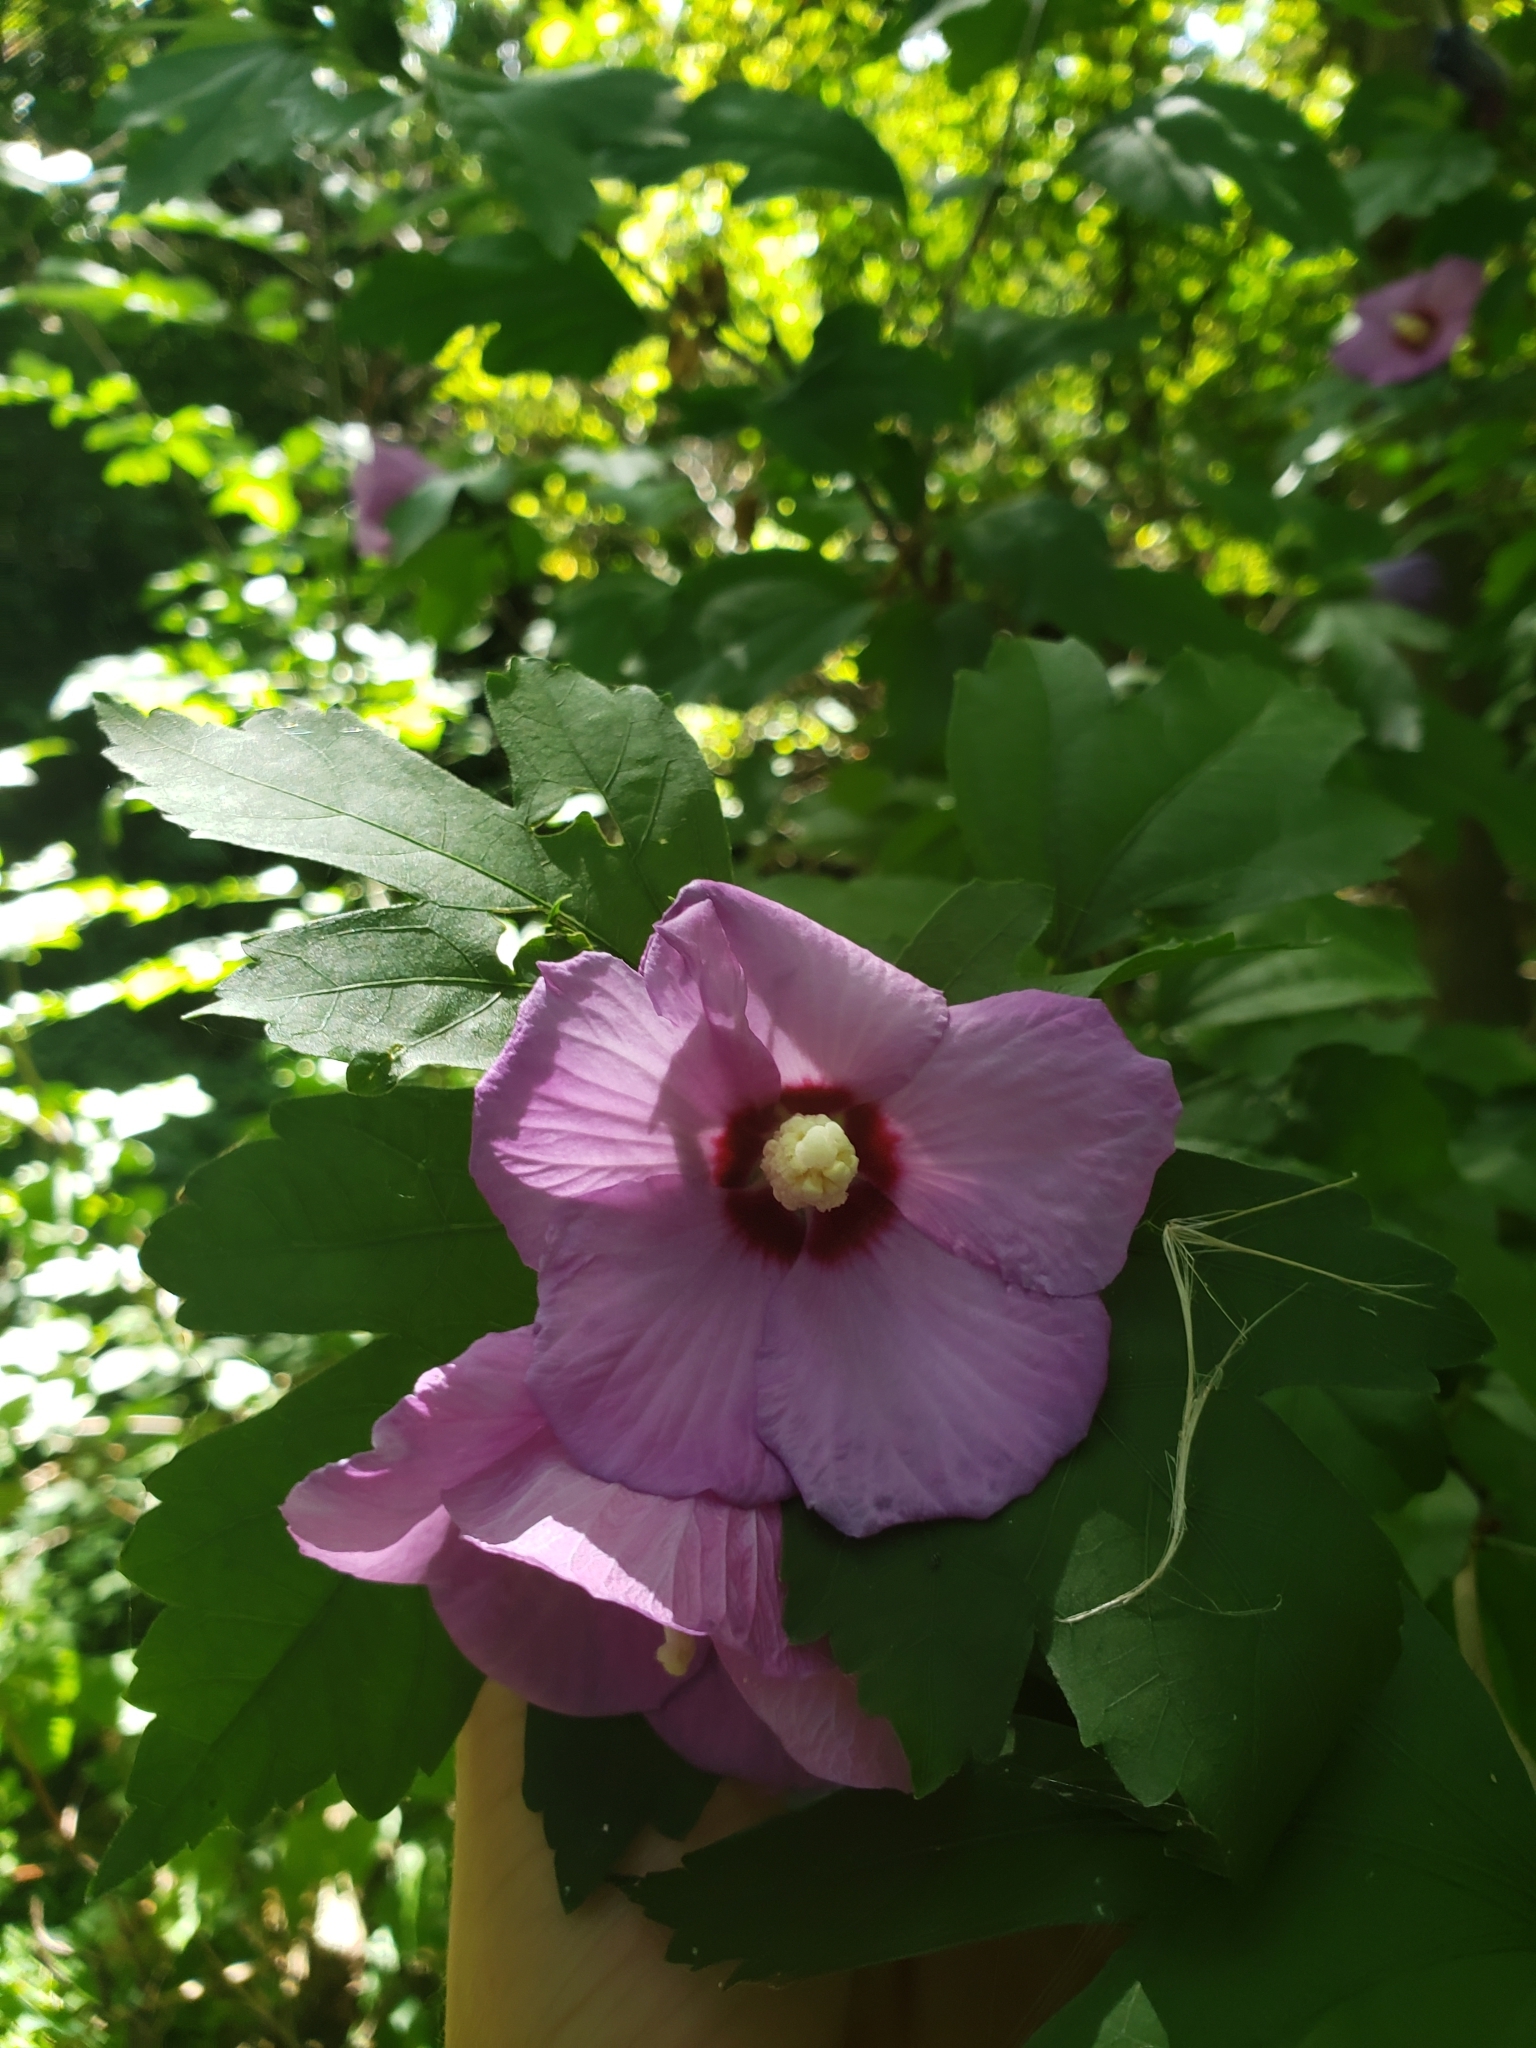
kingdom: Plantae
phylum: Tracheophyta
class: Magnoliopsida
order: Malvales
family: Malvaceae
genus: Hibiscus
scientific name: Hibiscus syriacus
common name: Syrian ketmia
